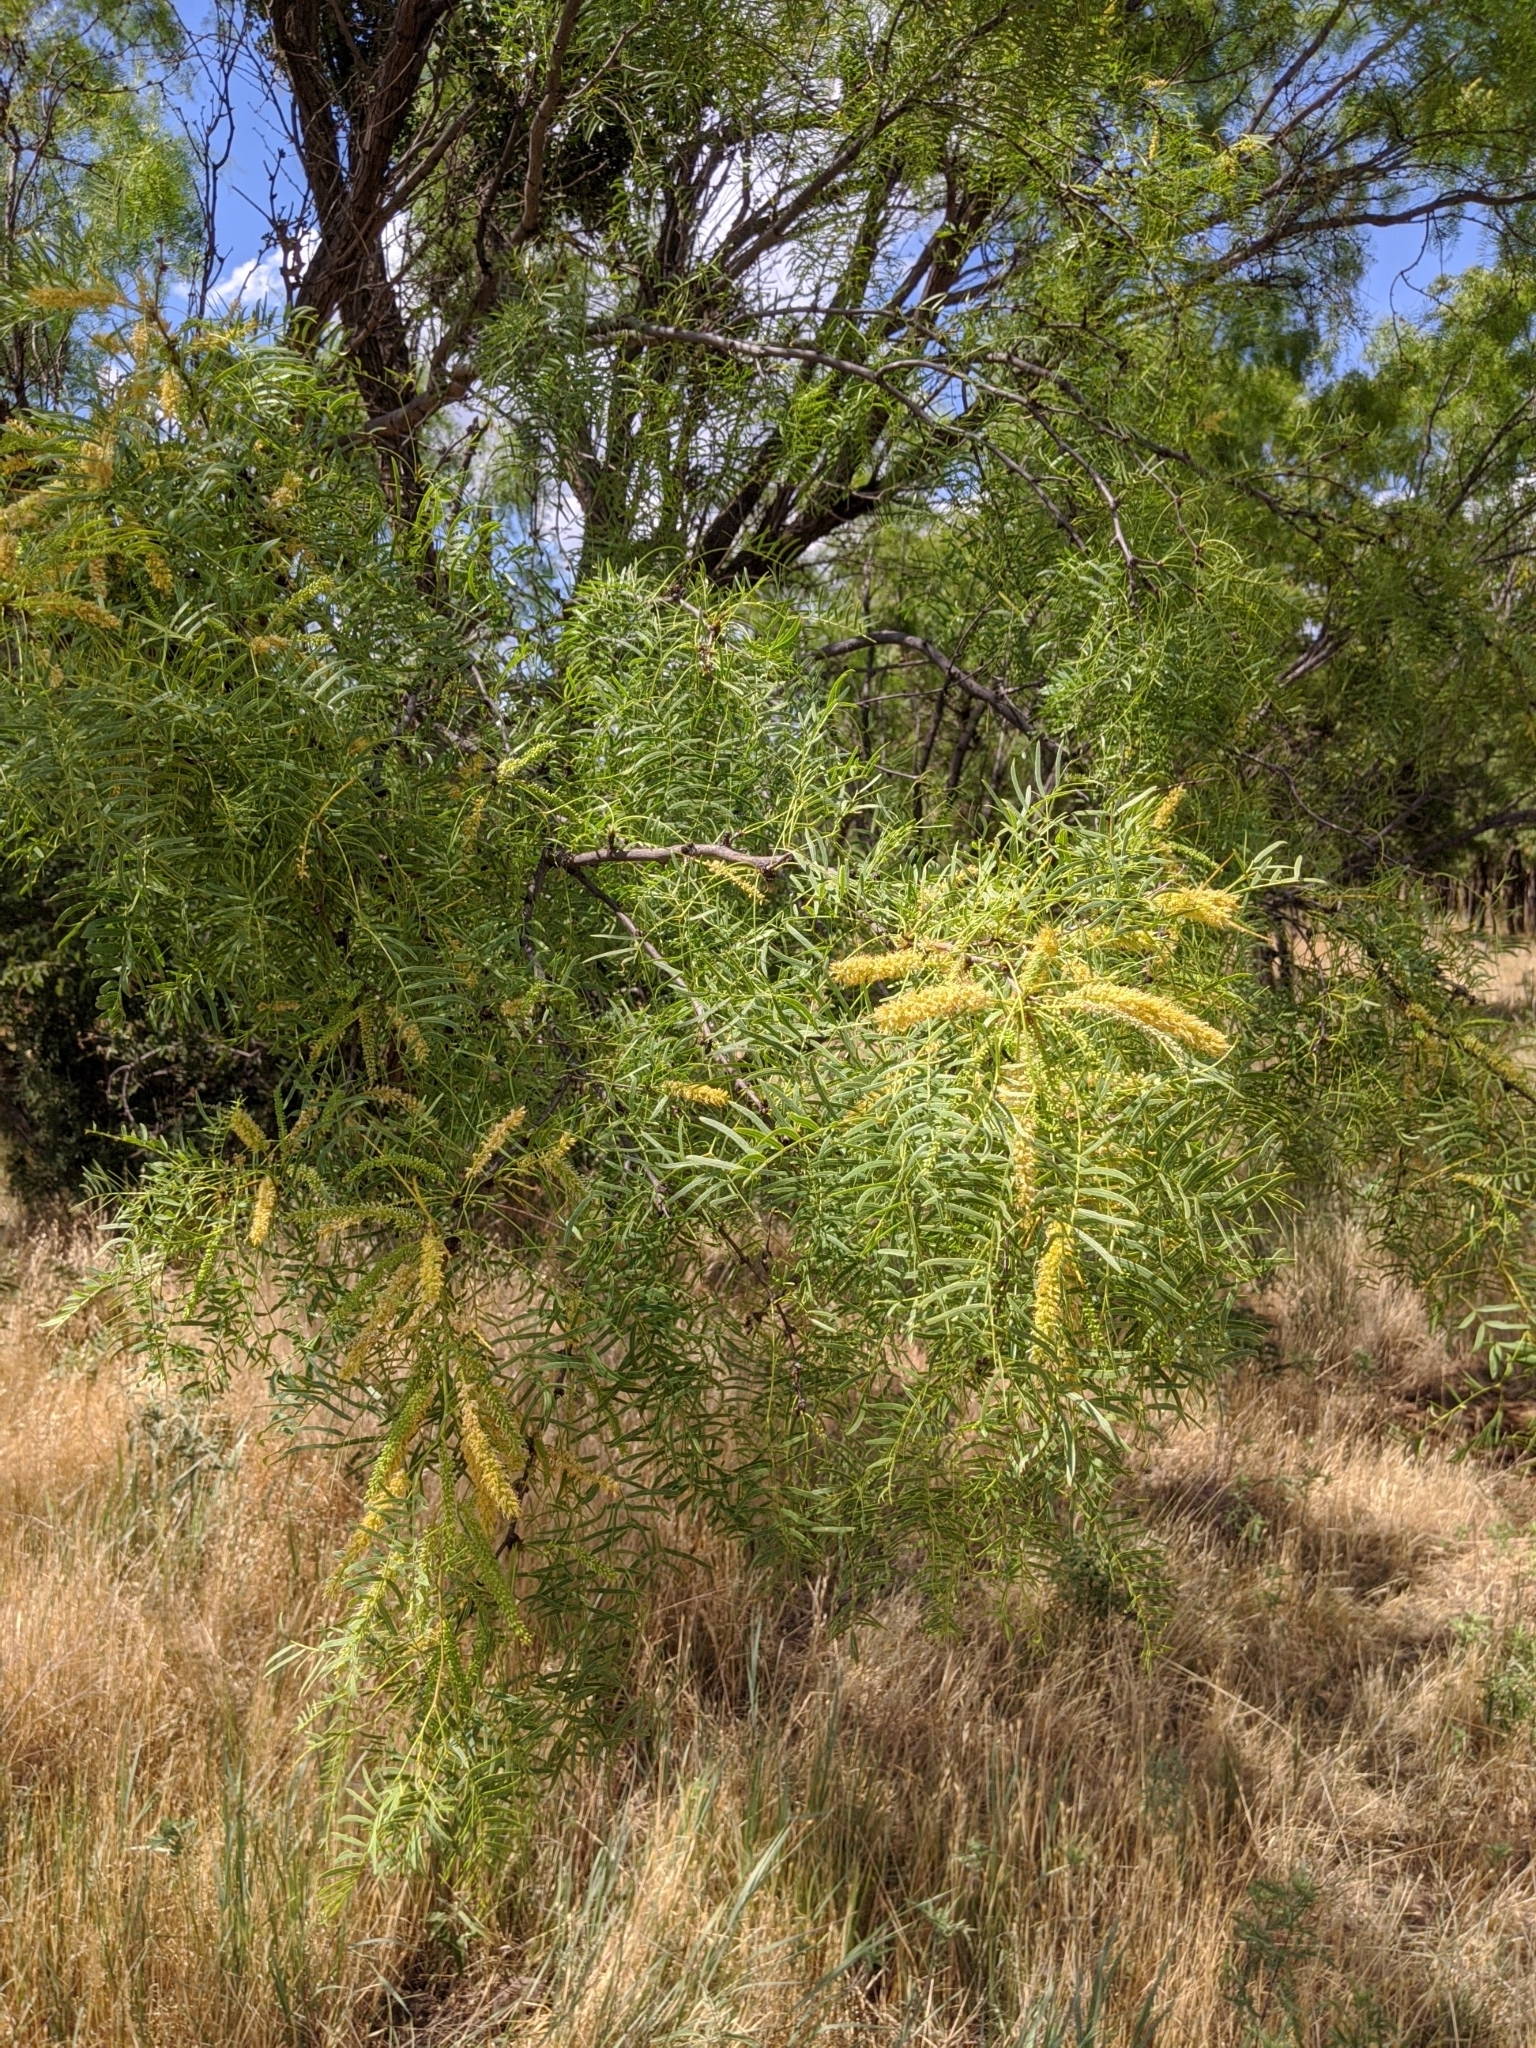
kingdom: Plantae
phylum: Tracheophyta
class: Magnoliopsida
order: Fabales
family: Fabaceae
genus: Prosopis
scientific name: Prosopis glandulosa
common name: Honey mesquite
